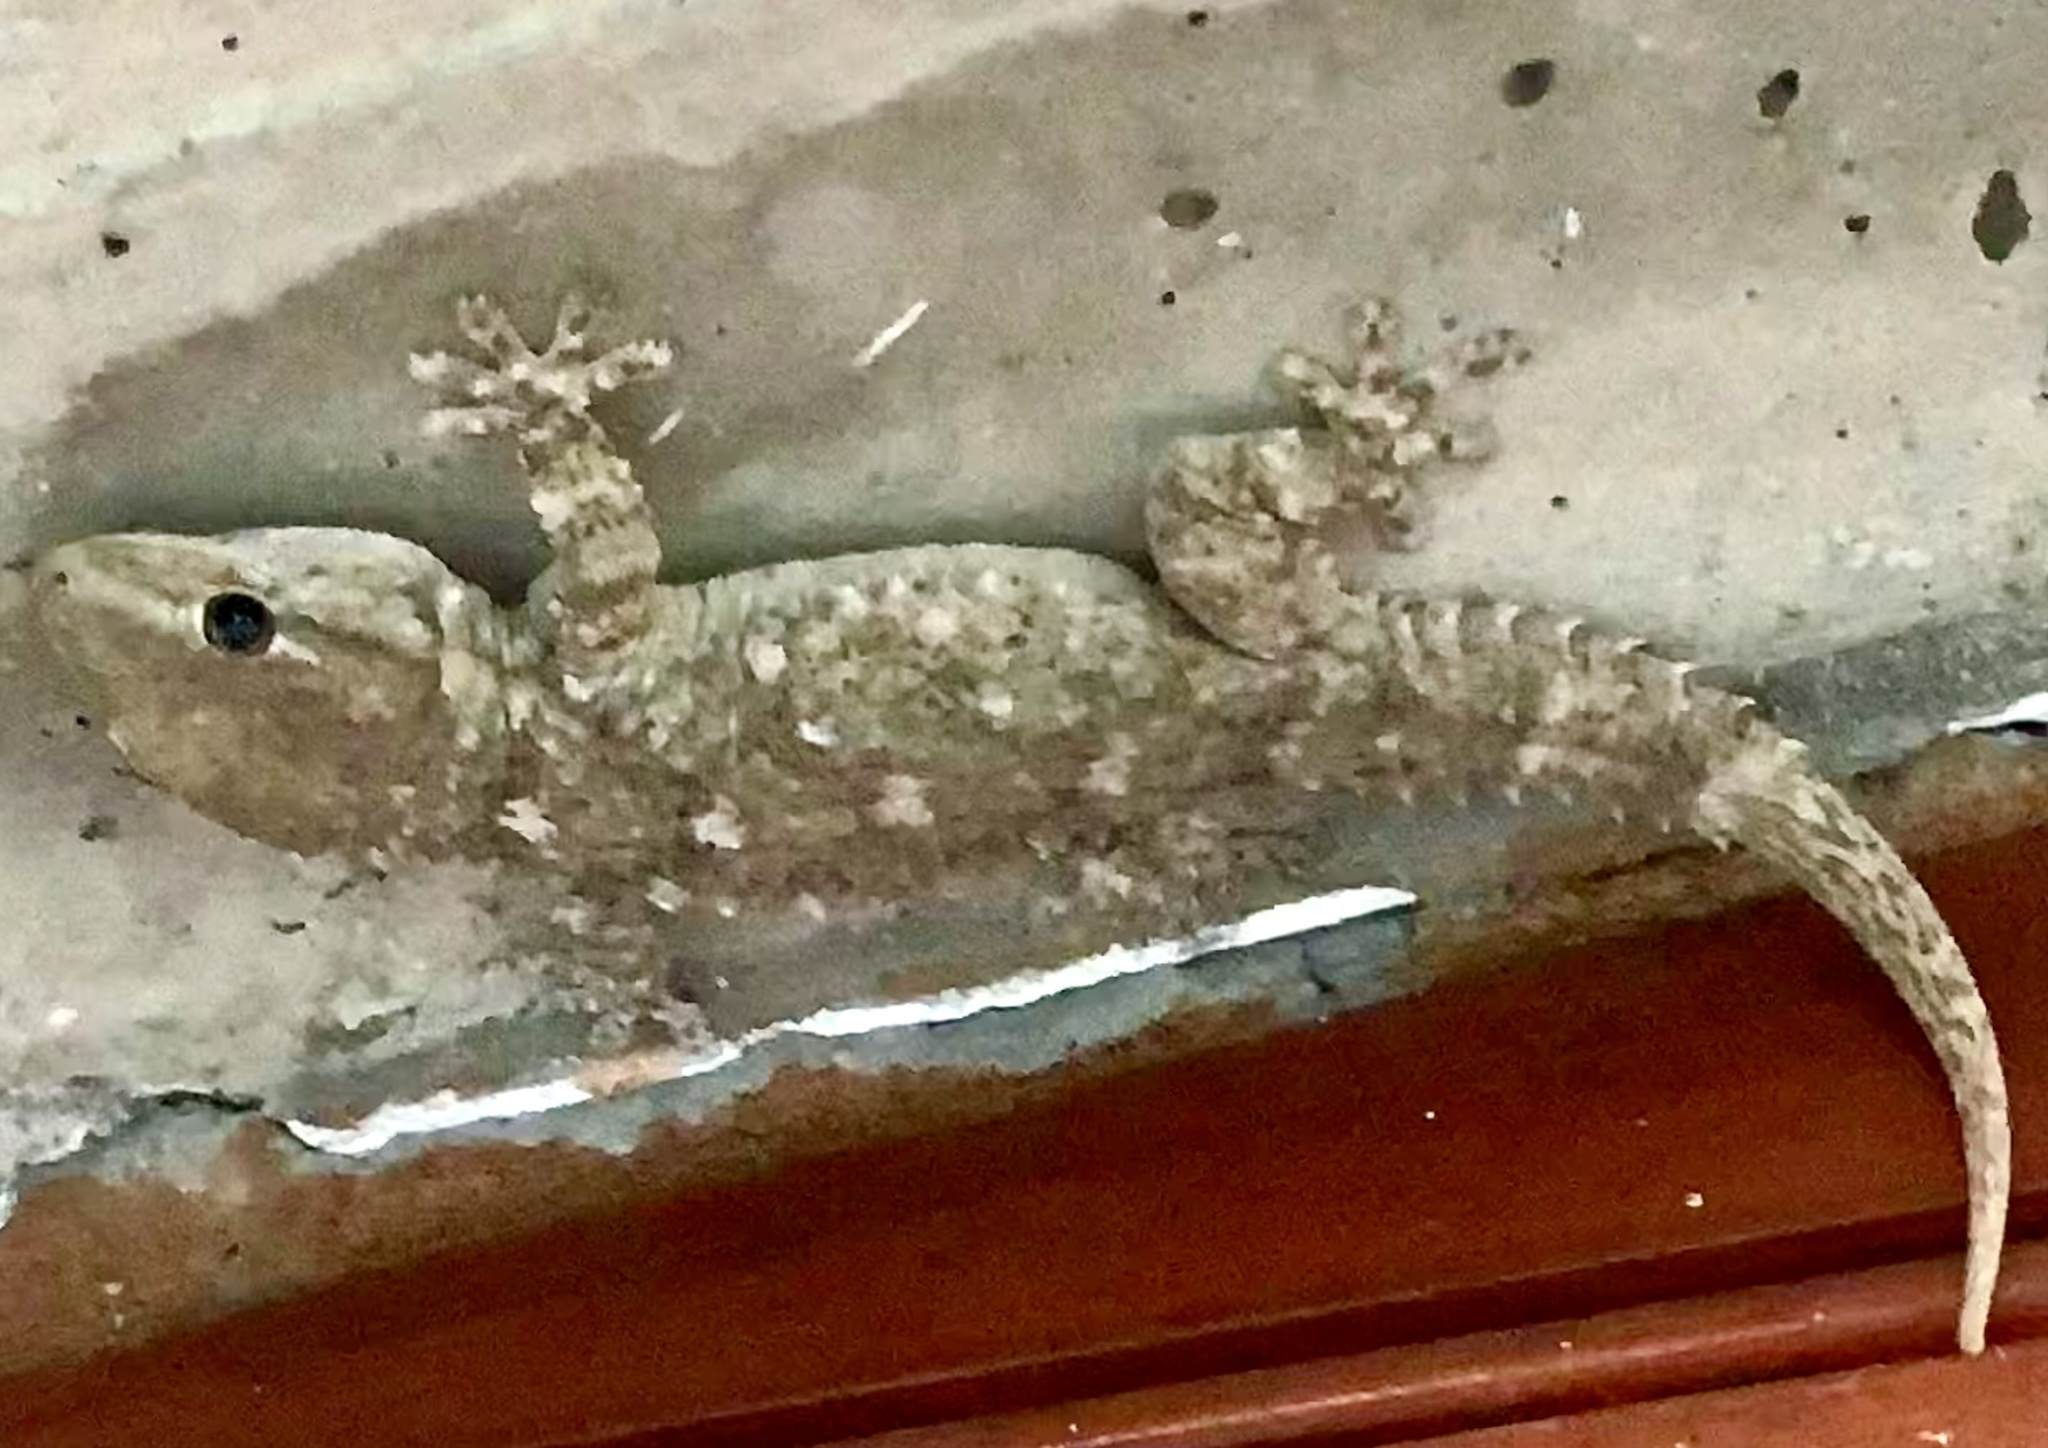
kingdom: Animalia
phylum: Chordata
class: Squamata
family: Phyllodactylidae
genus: Tarentola
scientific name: Tarentola mauritanica
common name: Moorish gecko
